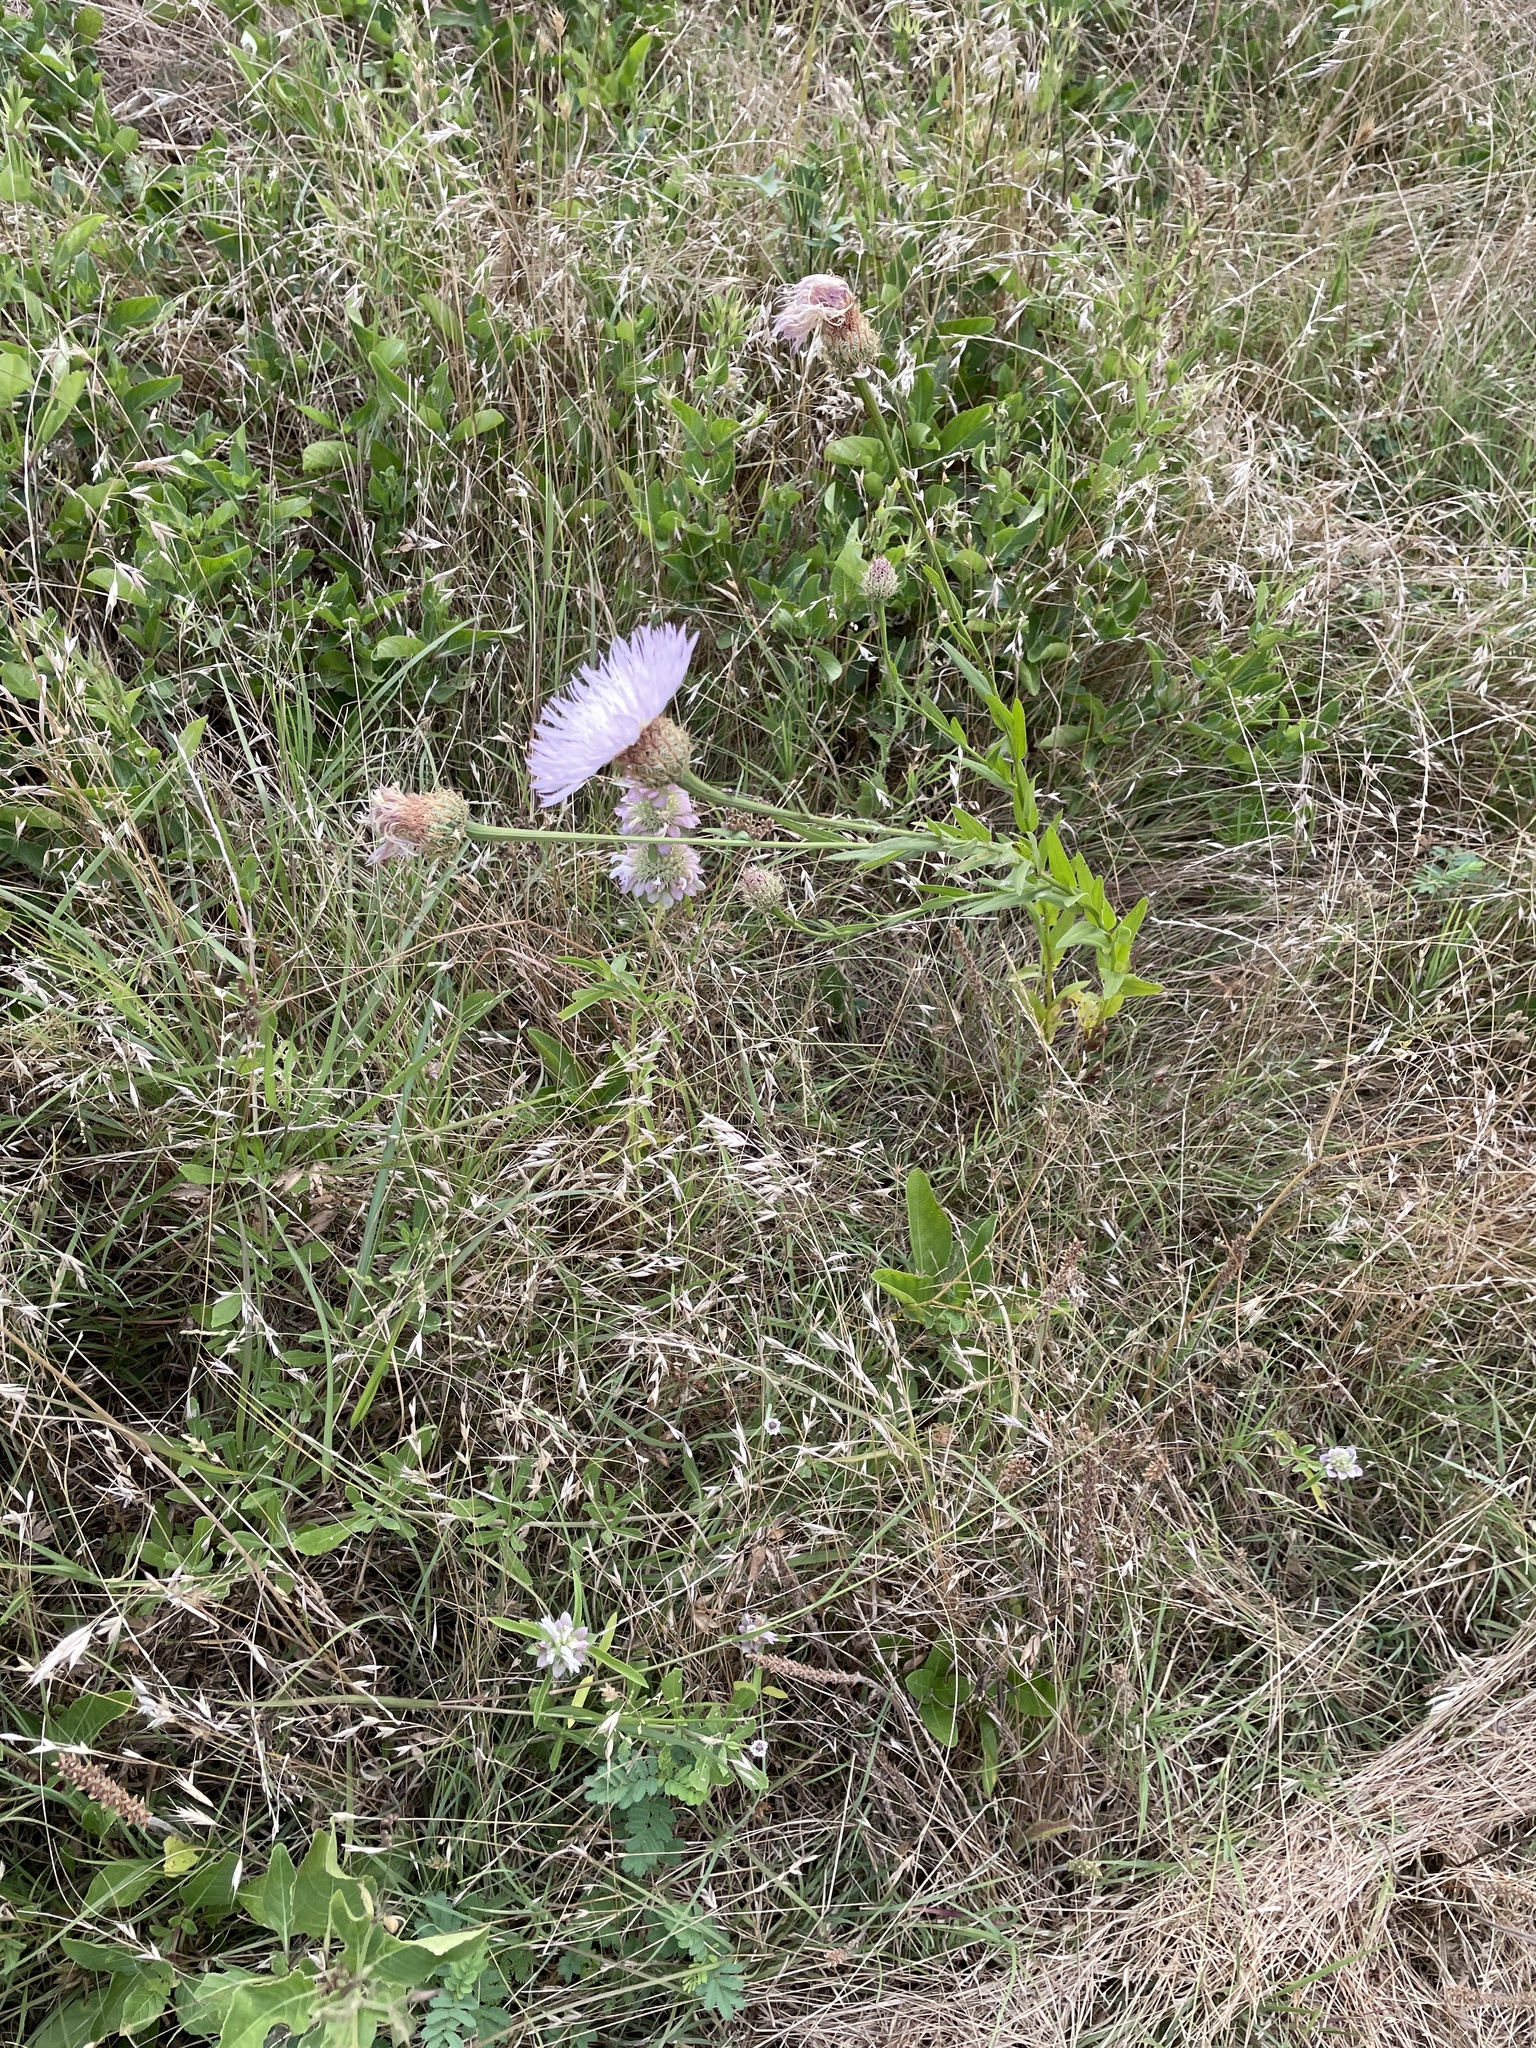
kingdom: Plantae
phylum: Tracheophyta
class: Magnoliopsida
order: Asterales
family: Asteraceae
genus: Plectocephalus
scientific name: Plectocephalus americanus
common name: American basket-flower
